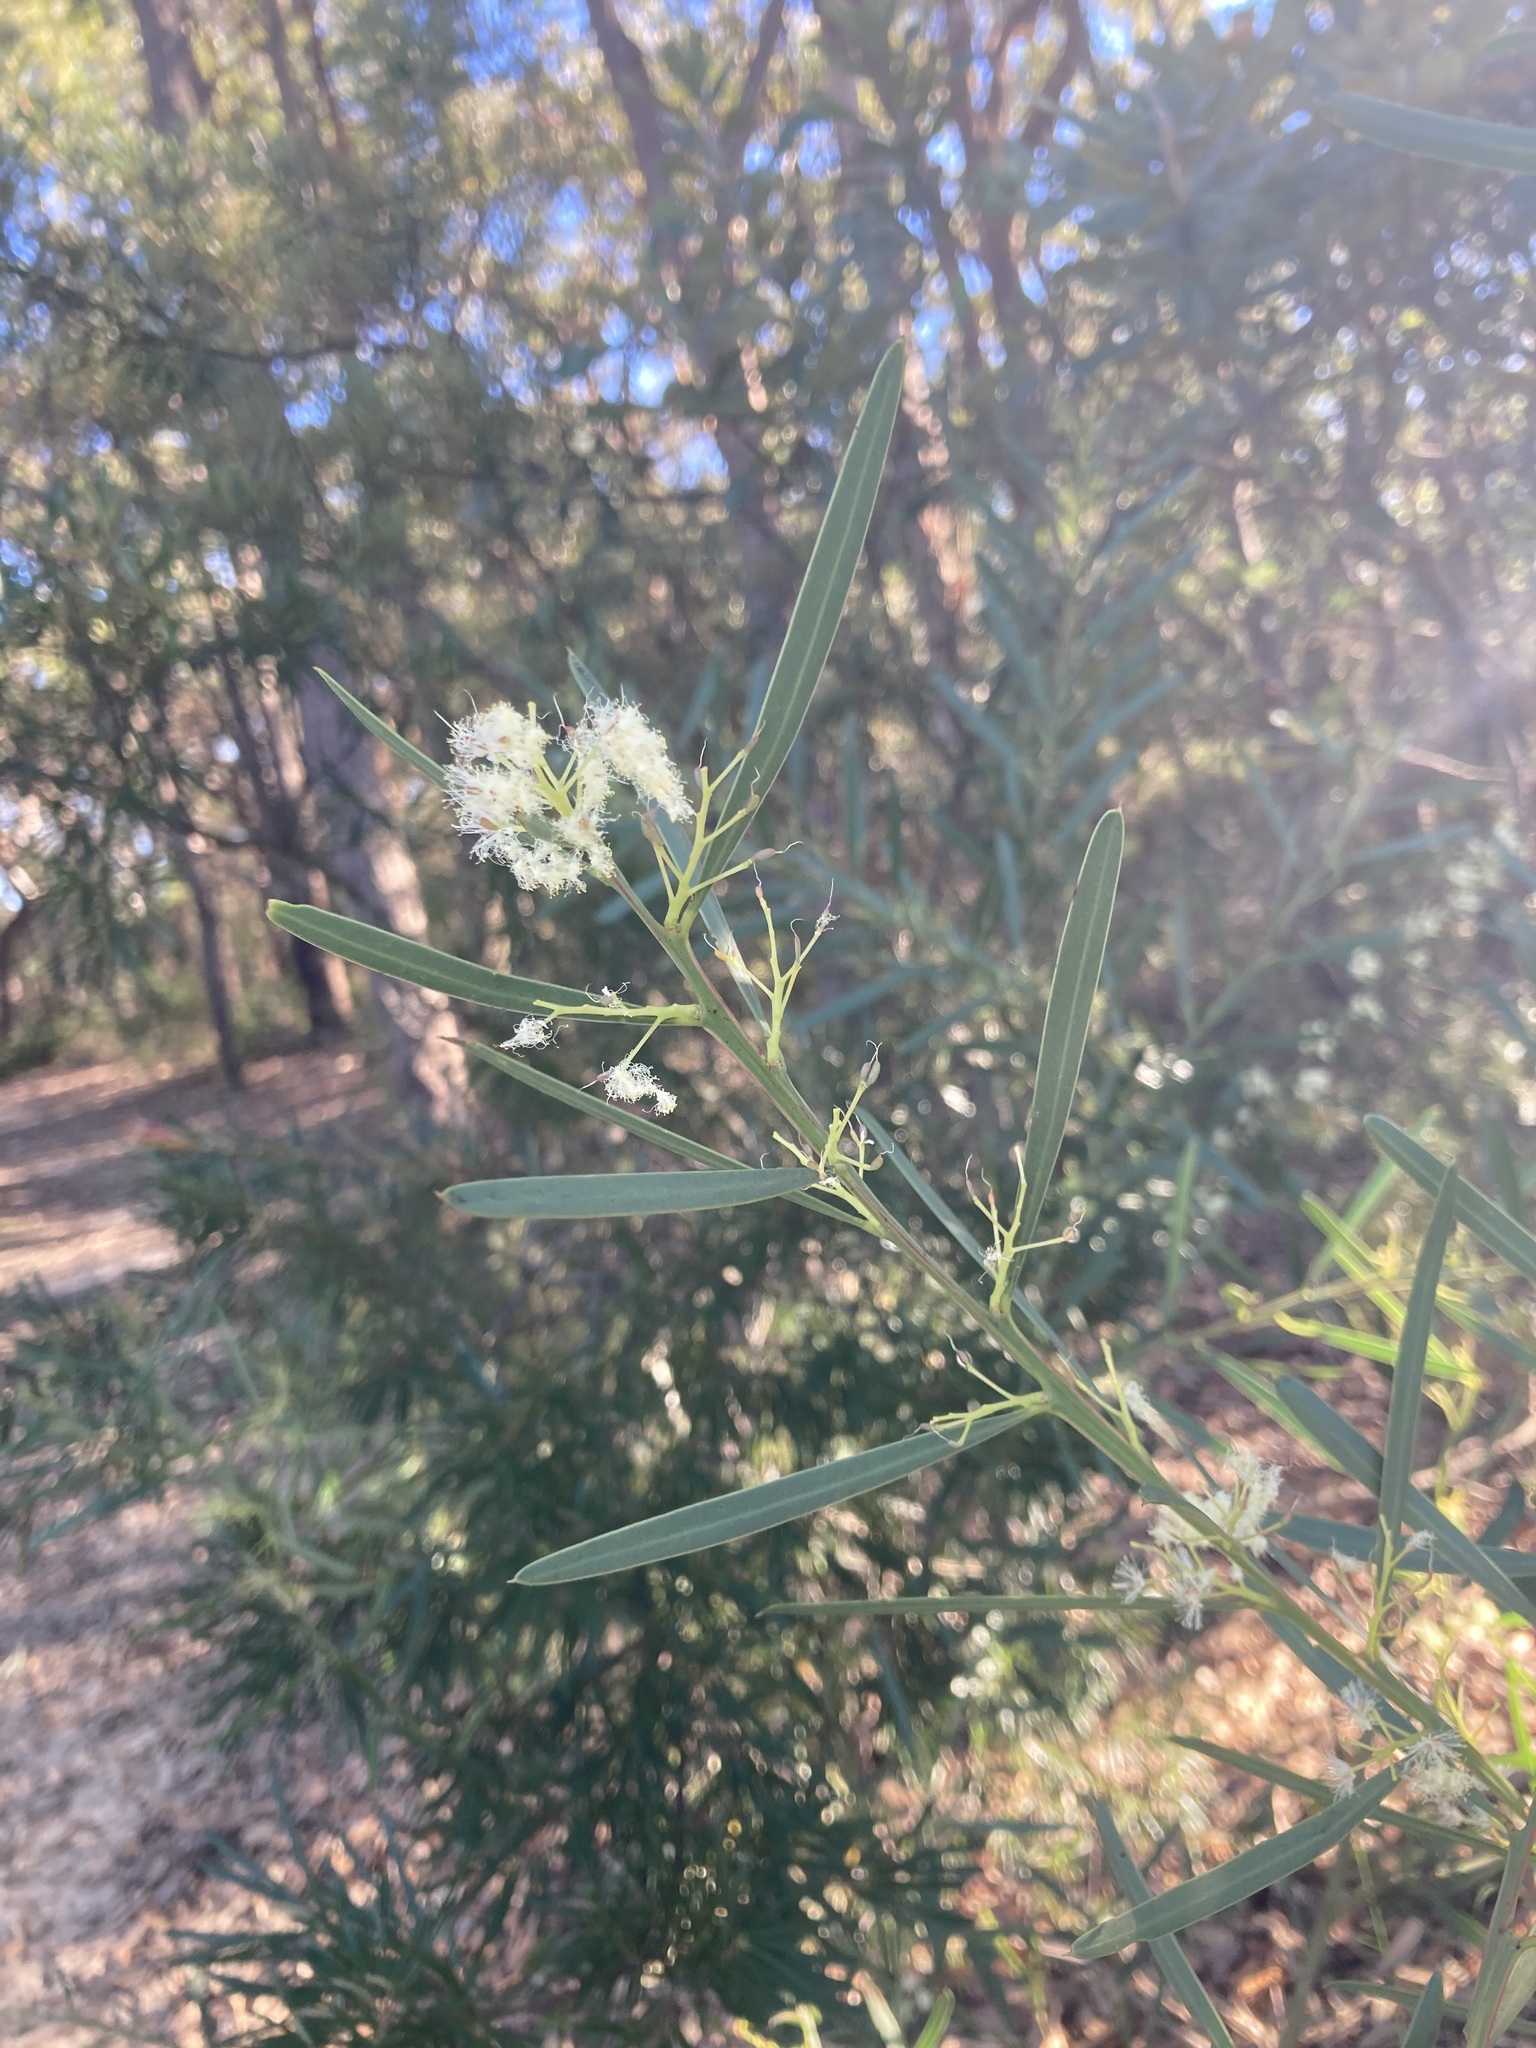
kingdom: Plantae
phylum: Tracheophyta
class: Magnoliopsida
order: Fabales
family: Fabaceae
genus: Acacia
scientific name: Acacia suaveolens
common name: Sweet acacia
